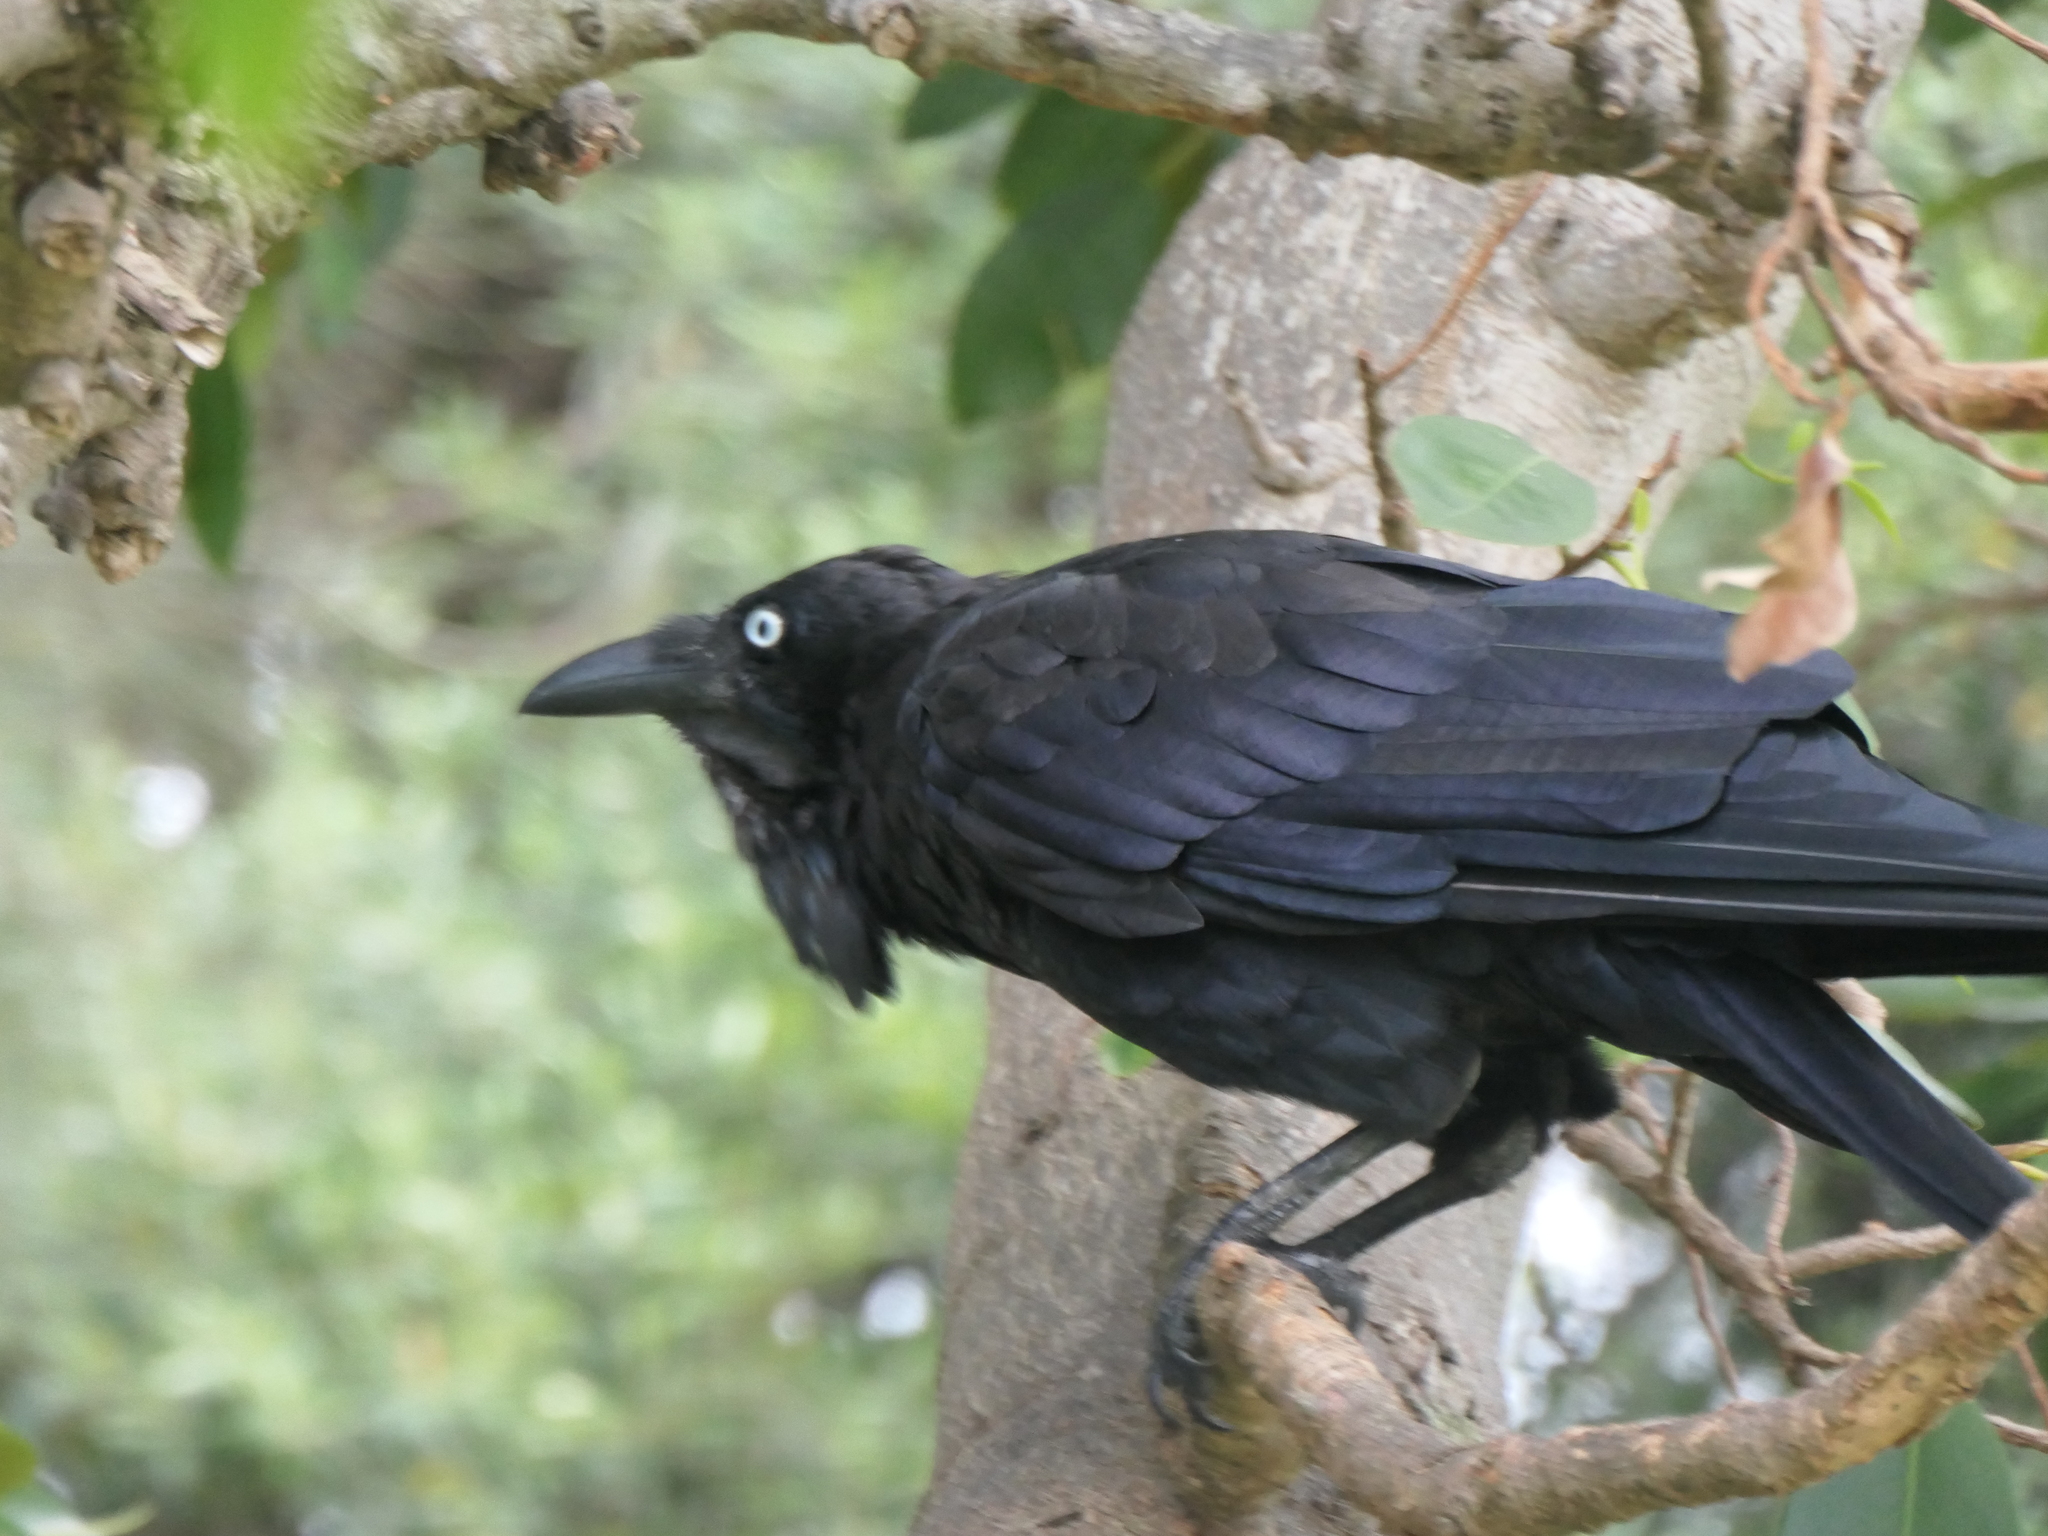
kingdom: Animalia
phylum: Chordata
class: Aves
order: Passeriformes
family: Corvidae
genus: Corvus
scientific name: Corvus coronoides
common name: Australian raven
